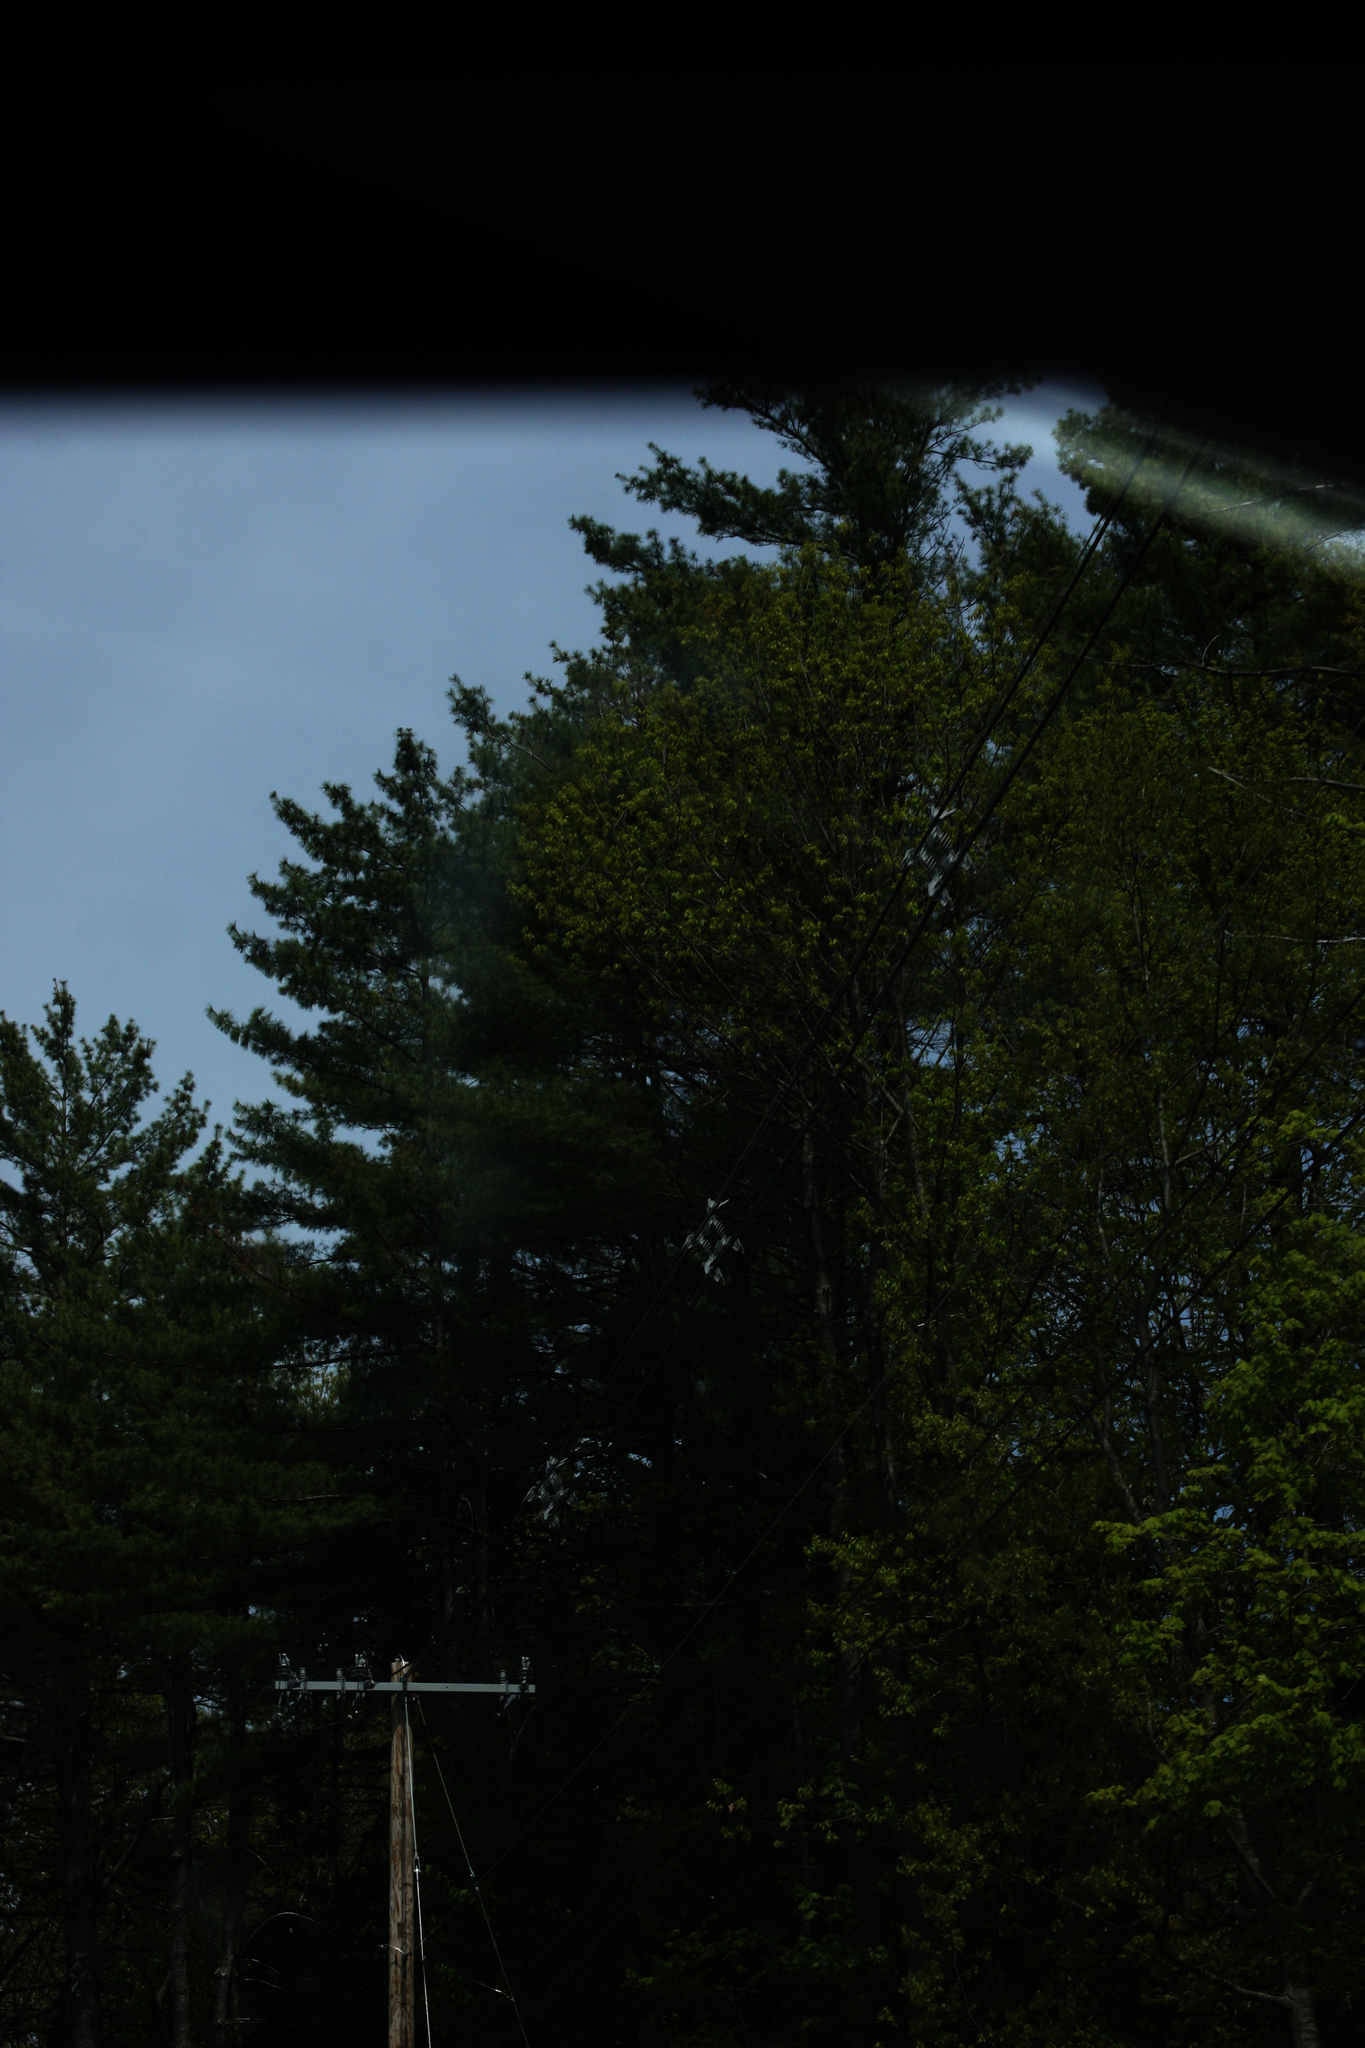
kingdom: Plantae
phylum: Tracheophyta
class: Pinopsida
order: Pinales
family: Pinaceae
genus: Pinus
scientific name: Pinus strobus
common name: Weymouth pine
